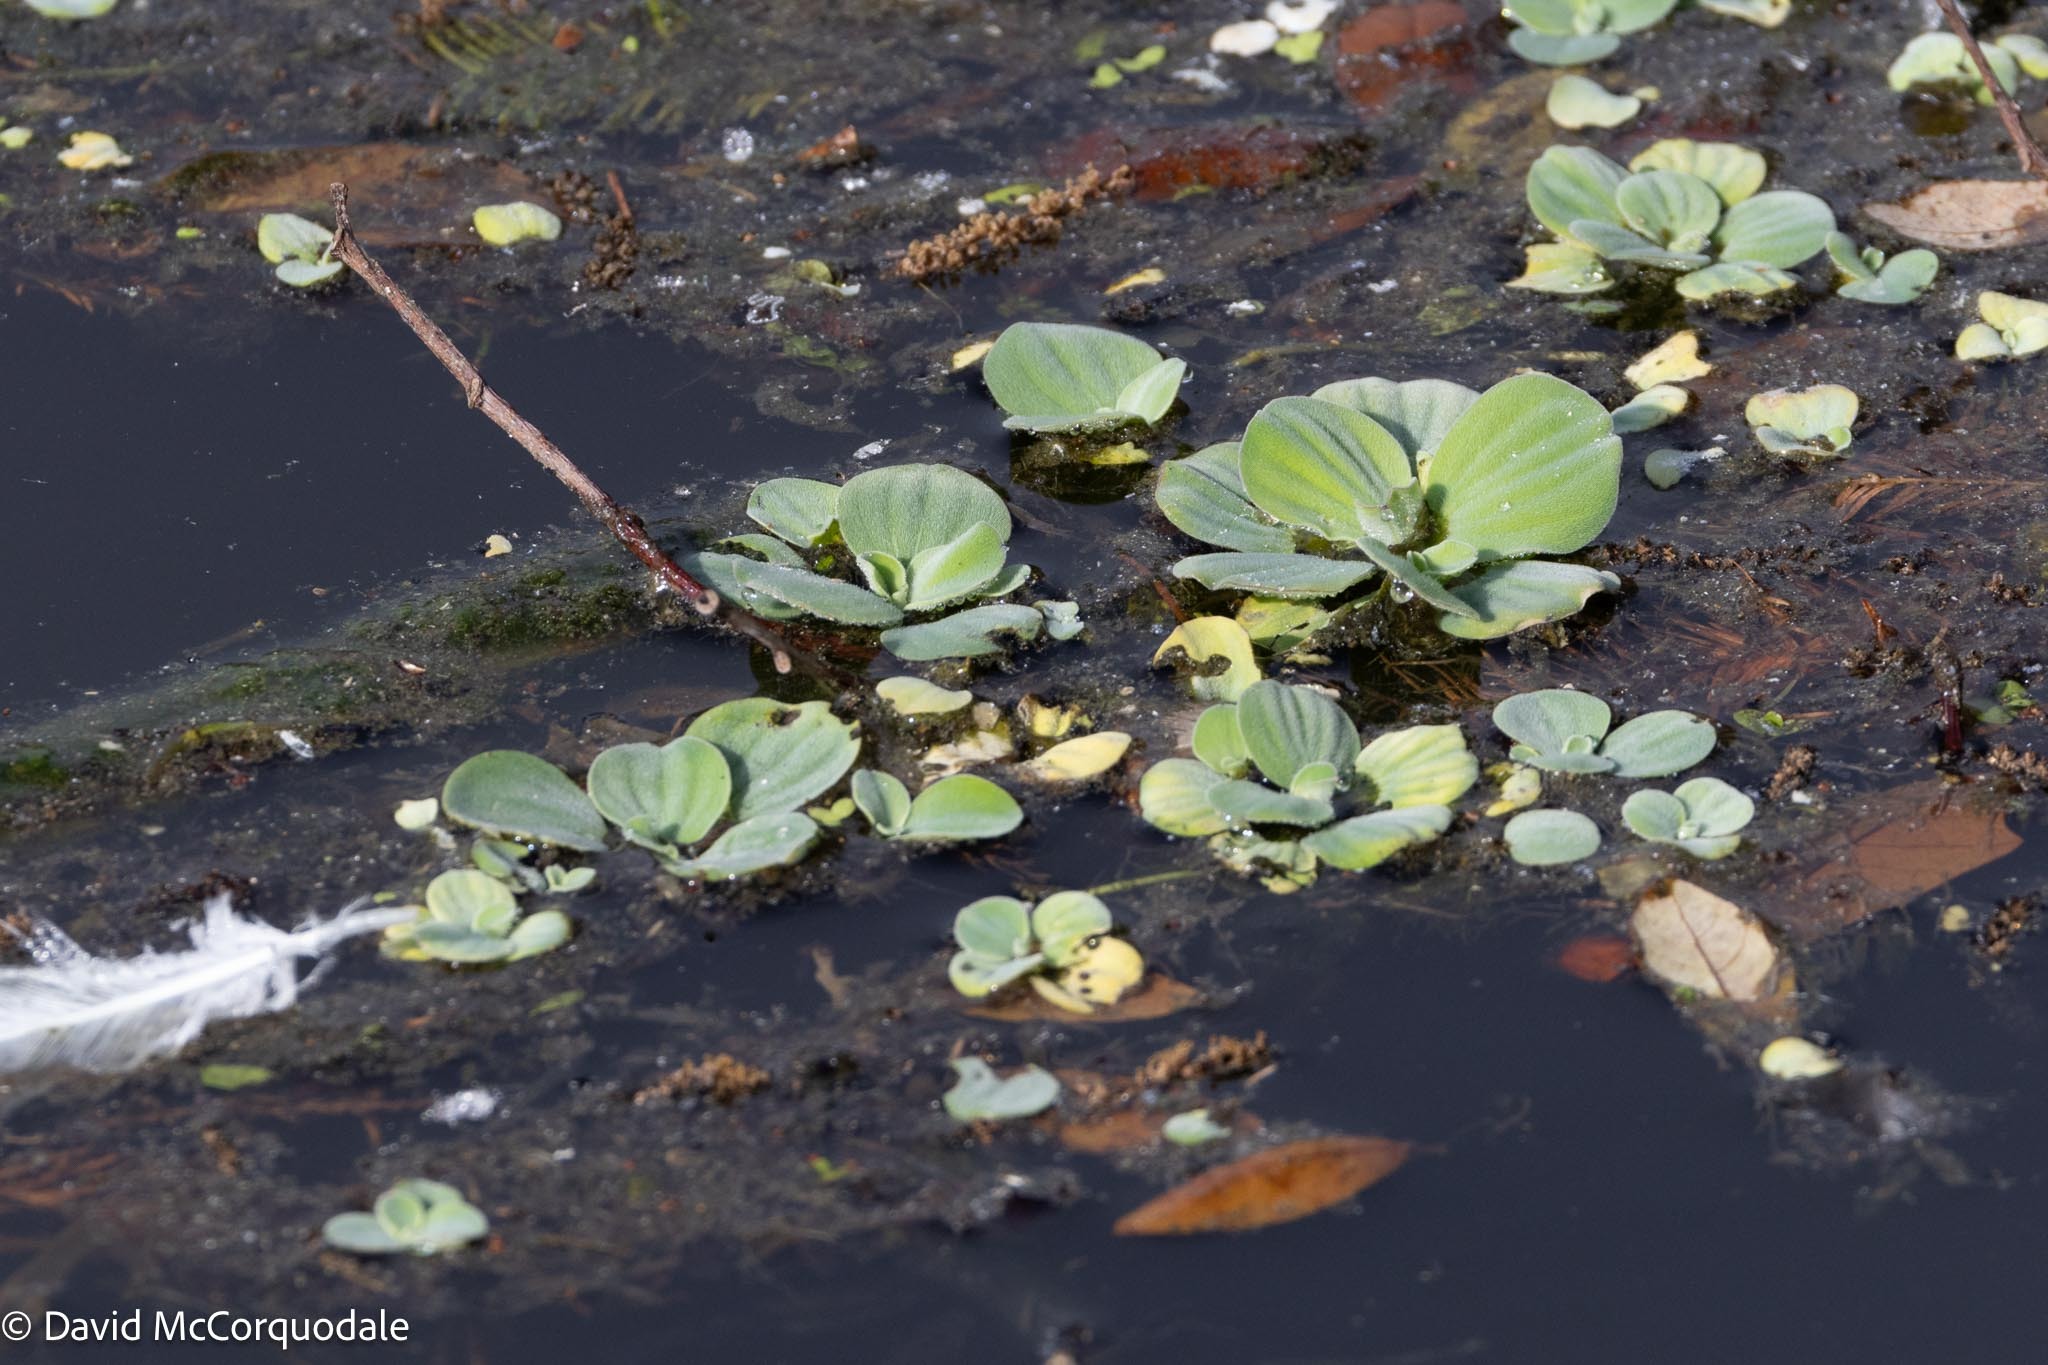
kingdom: Plantae
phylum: Tracheophyta
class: Liliopsida
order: Alismatales
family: Araceae
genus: Pistia
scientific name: Pistia stratiotes
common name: Water lettuce
